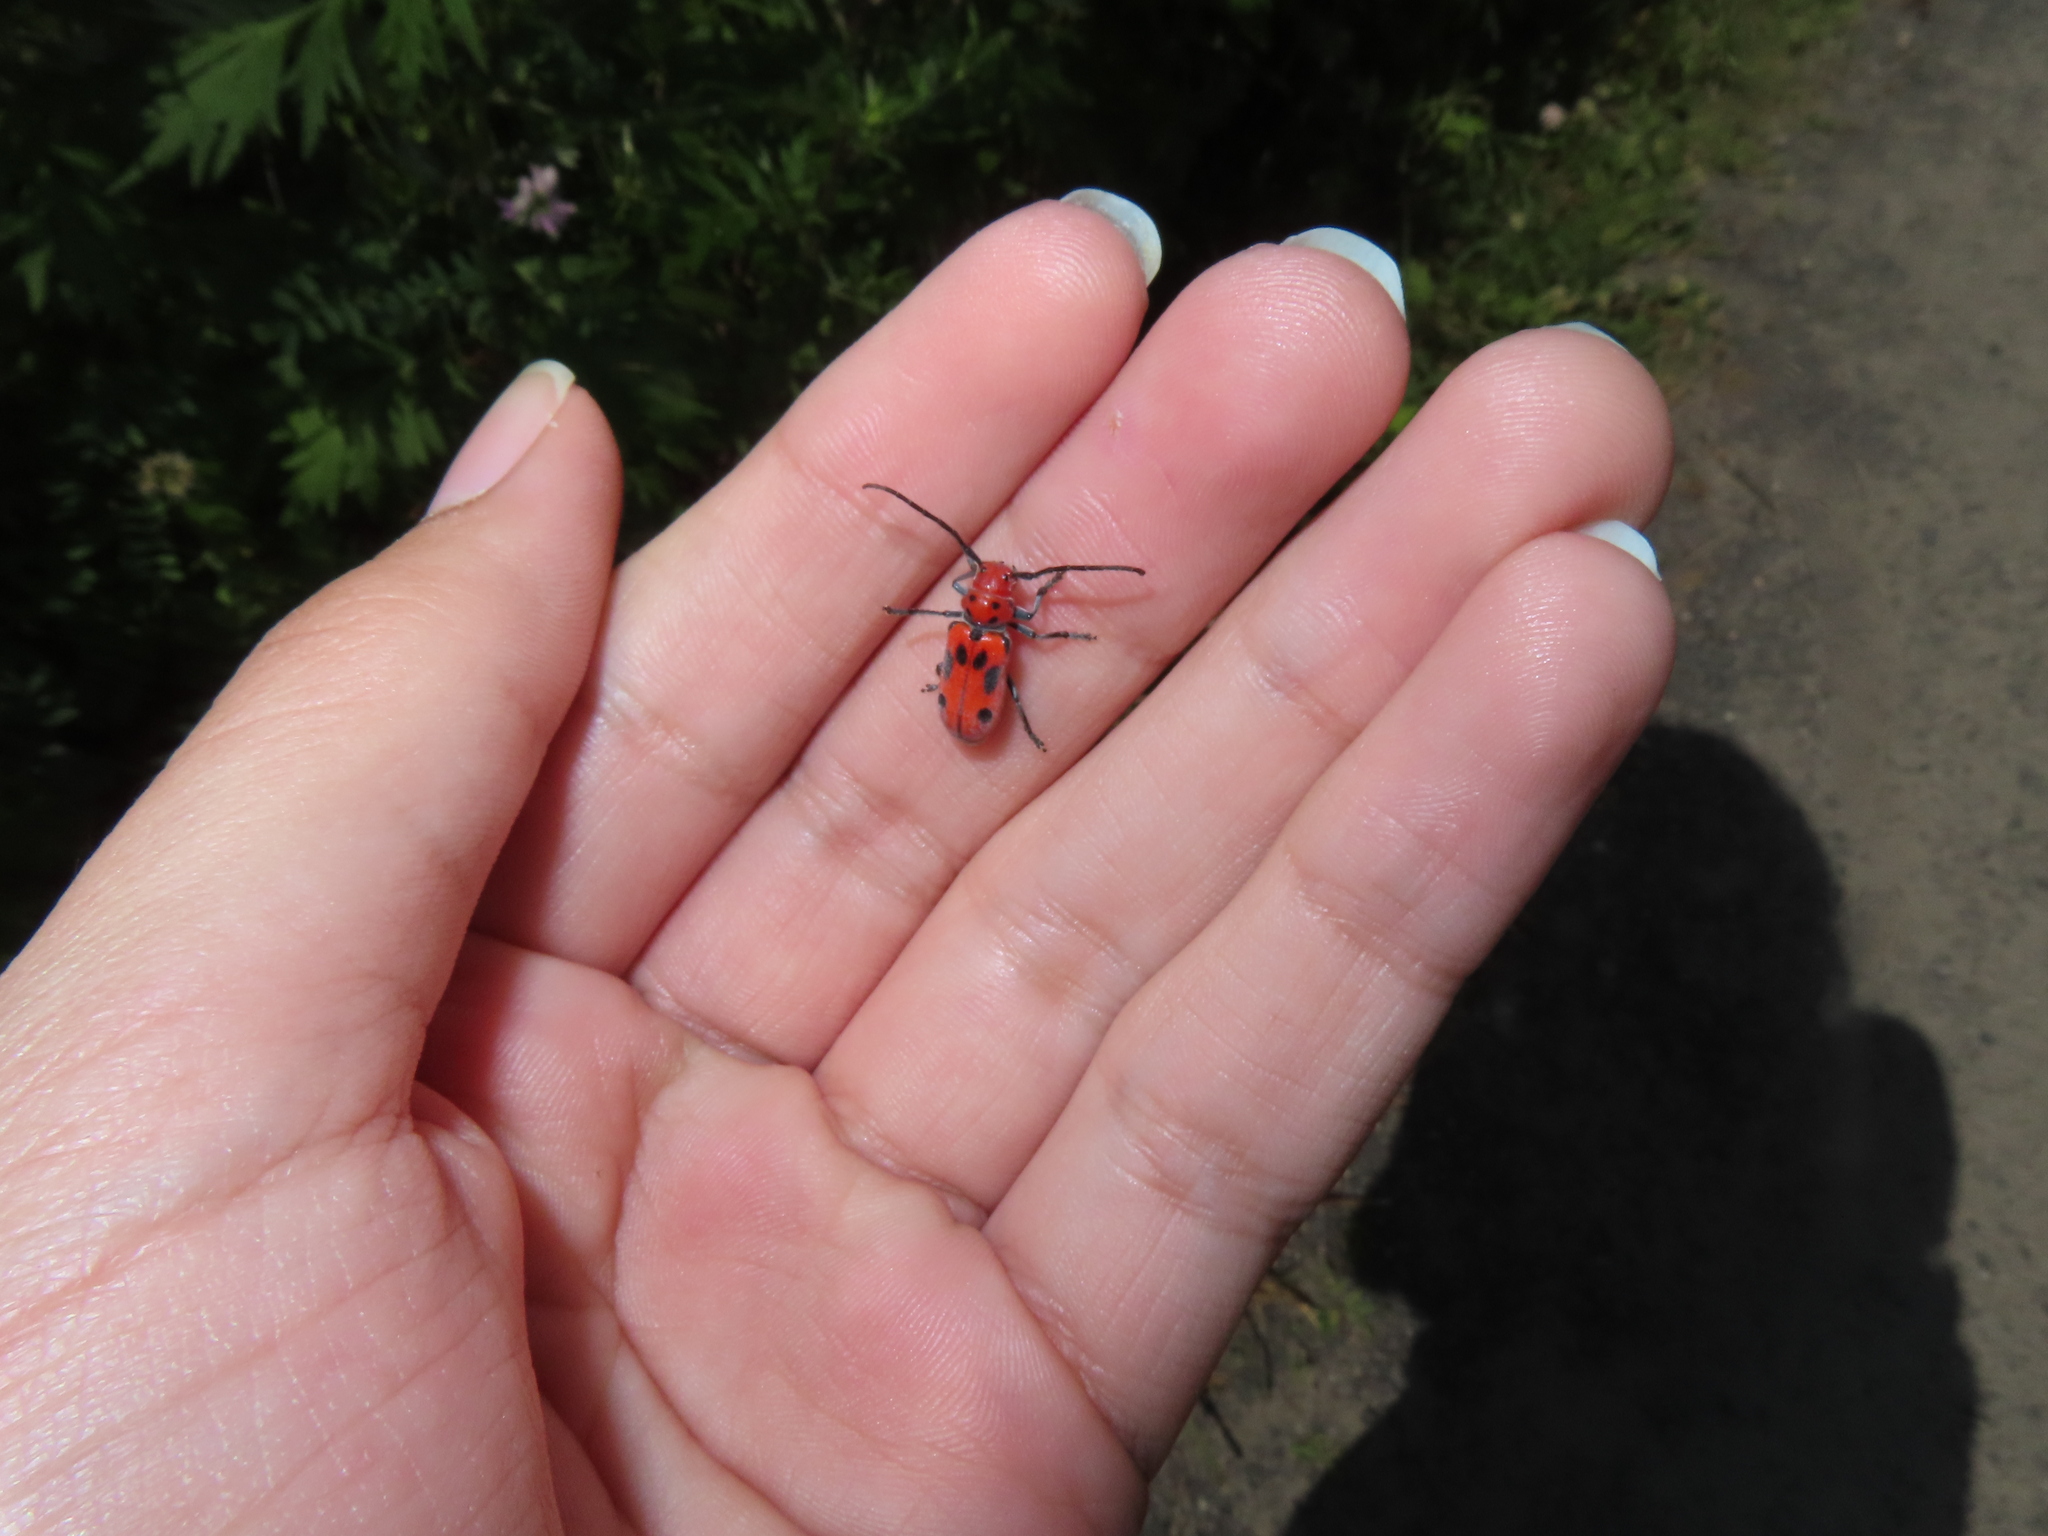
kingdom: Animalia
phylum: Arthropoda
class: Insecta
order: Coleoptera
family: Cerambycidae
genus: Tetraopes
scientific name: Tetraopes tetrophthalmus
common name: Red milkweed beetle
